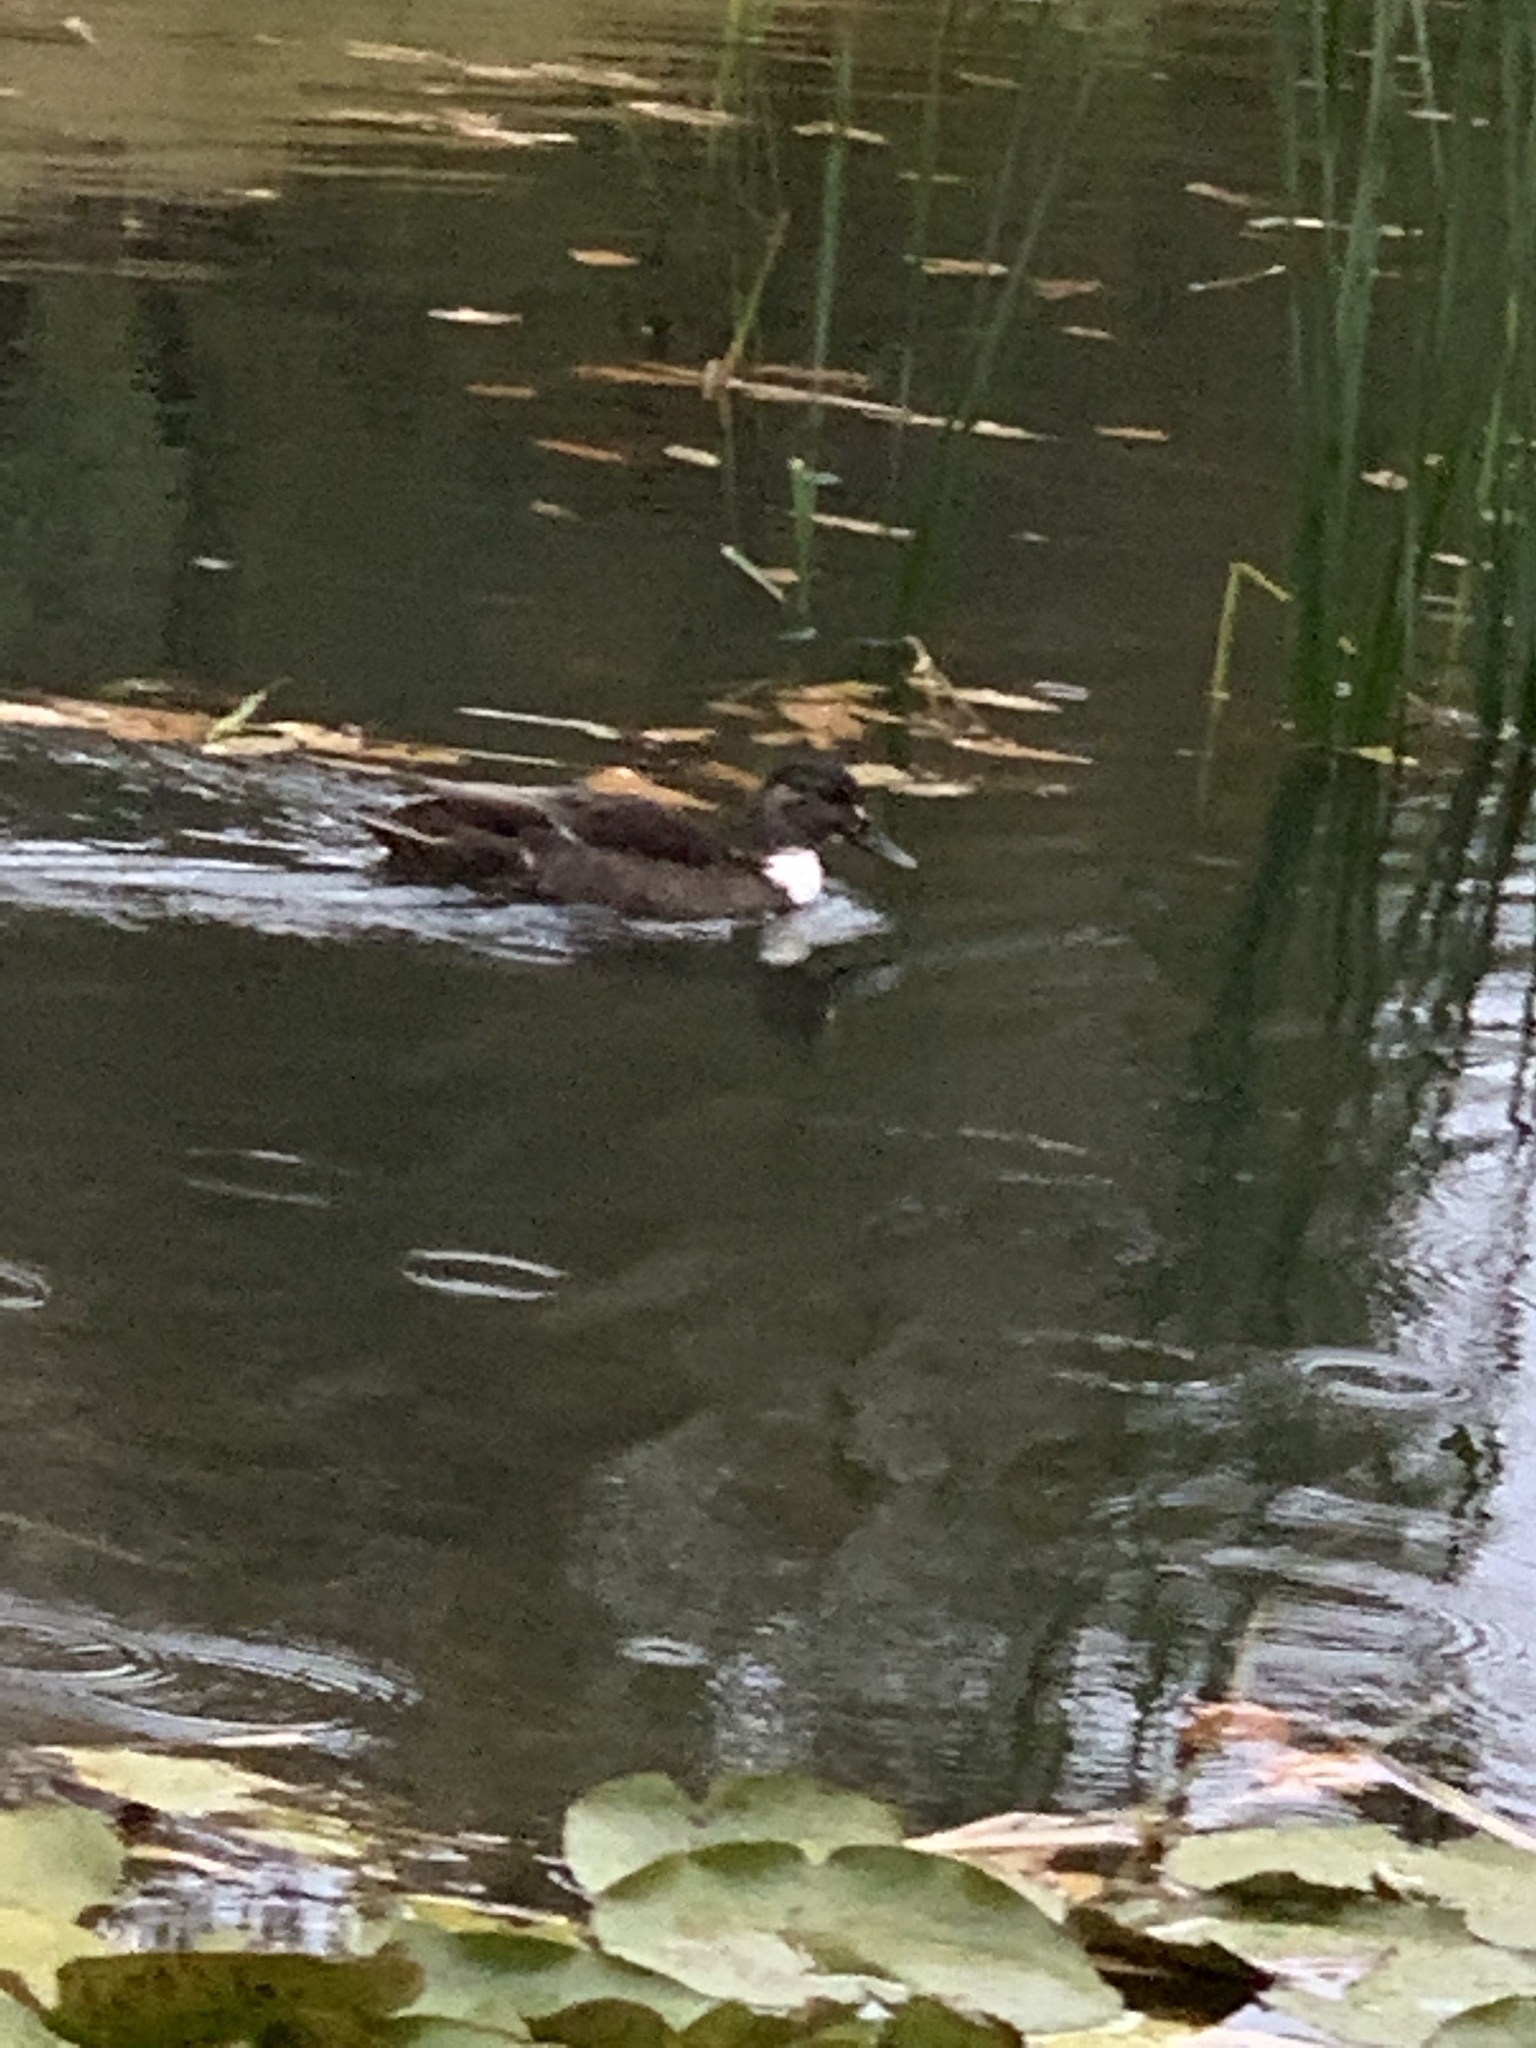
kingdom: Animalia
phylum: Chordata
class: Aves
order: Anseriformes
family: Anatidae
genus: Anas
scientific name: Anas platyrhynchos
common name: Mallard
